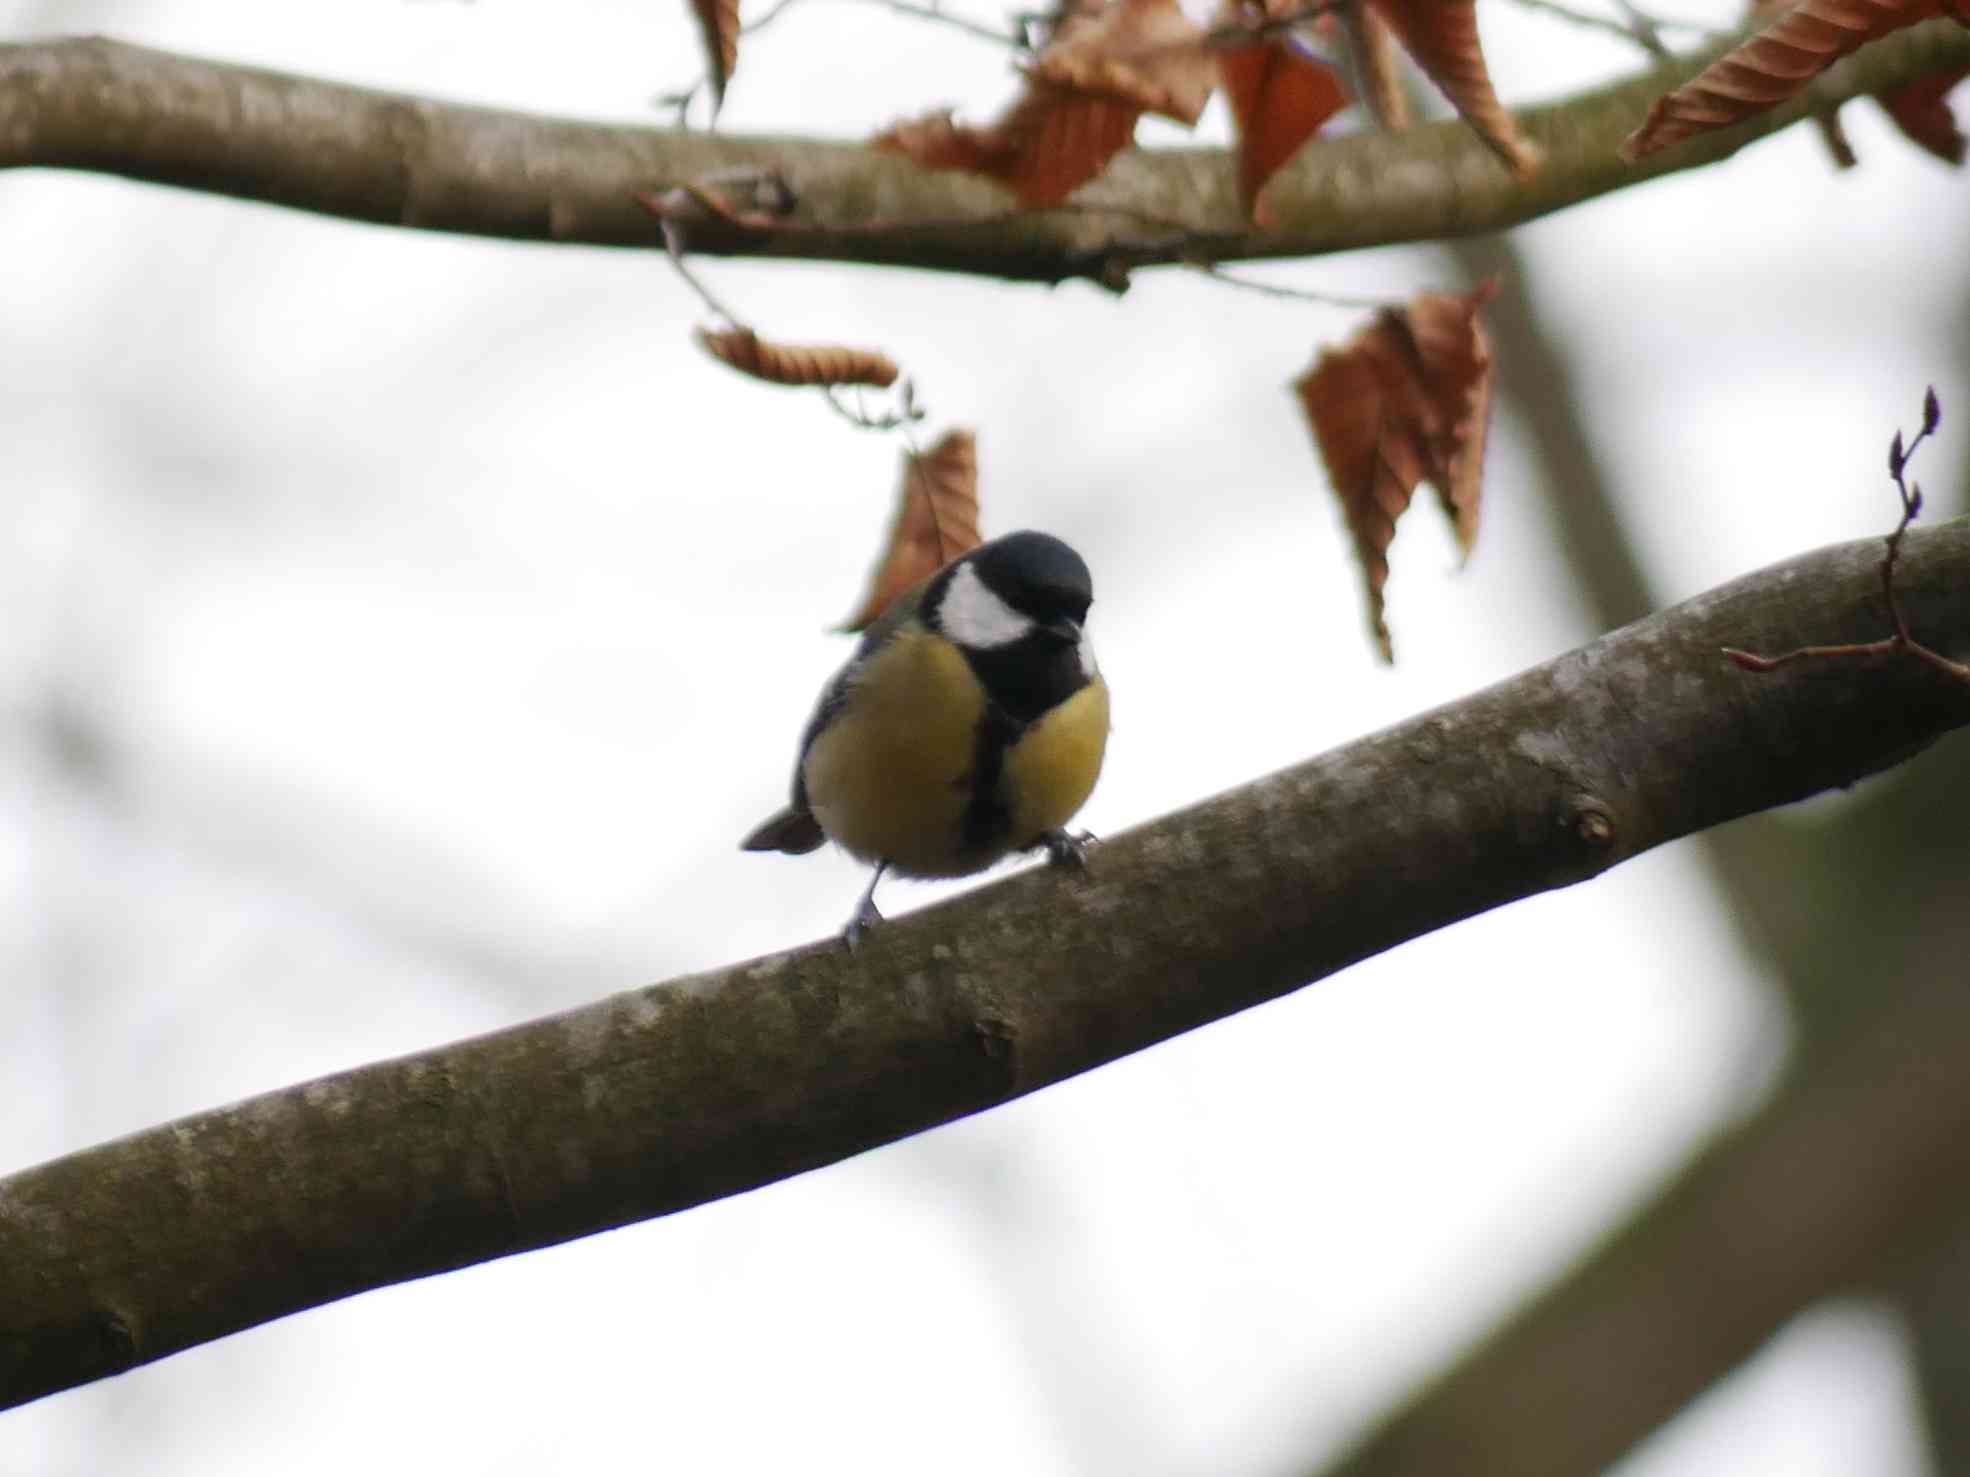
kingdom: Animalia
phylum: Chordata
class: Aves
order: Passeriformes
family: Paridae
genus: Parus
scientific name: Parus major
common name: Great tit
